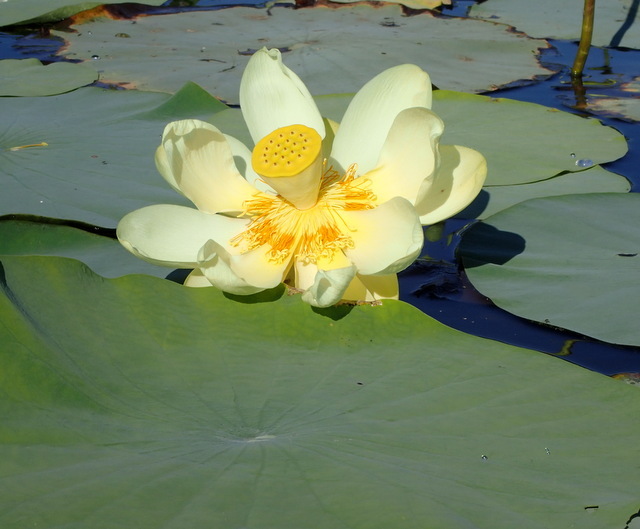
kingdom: Plantae
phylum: Tracheophyta
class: Magnoliopsida
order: Proteales
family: Nelumbonaceae
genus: Nelumbo
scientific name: Nelumbo lutea
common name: American lotus
